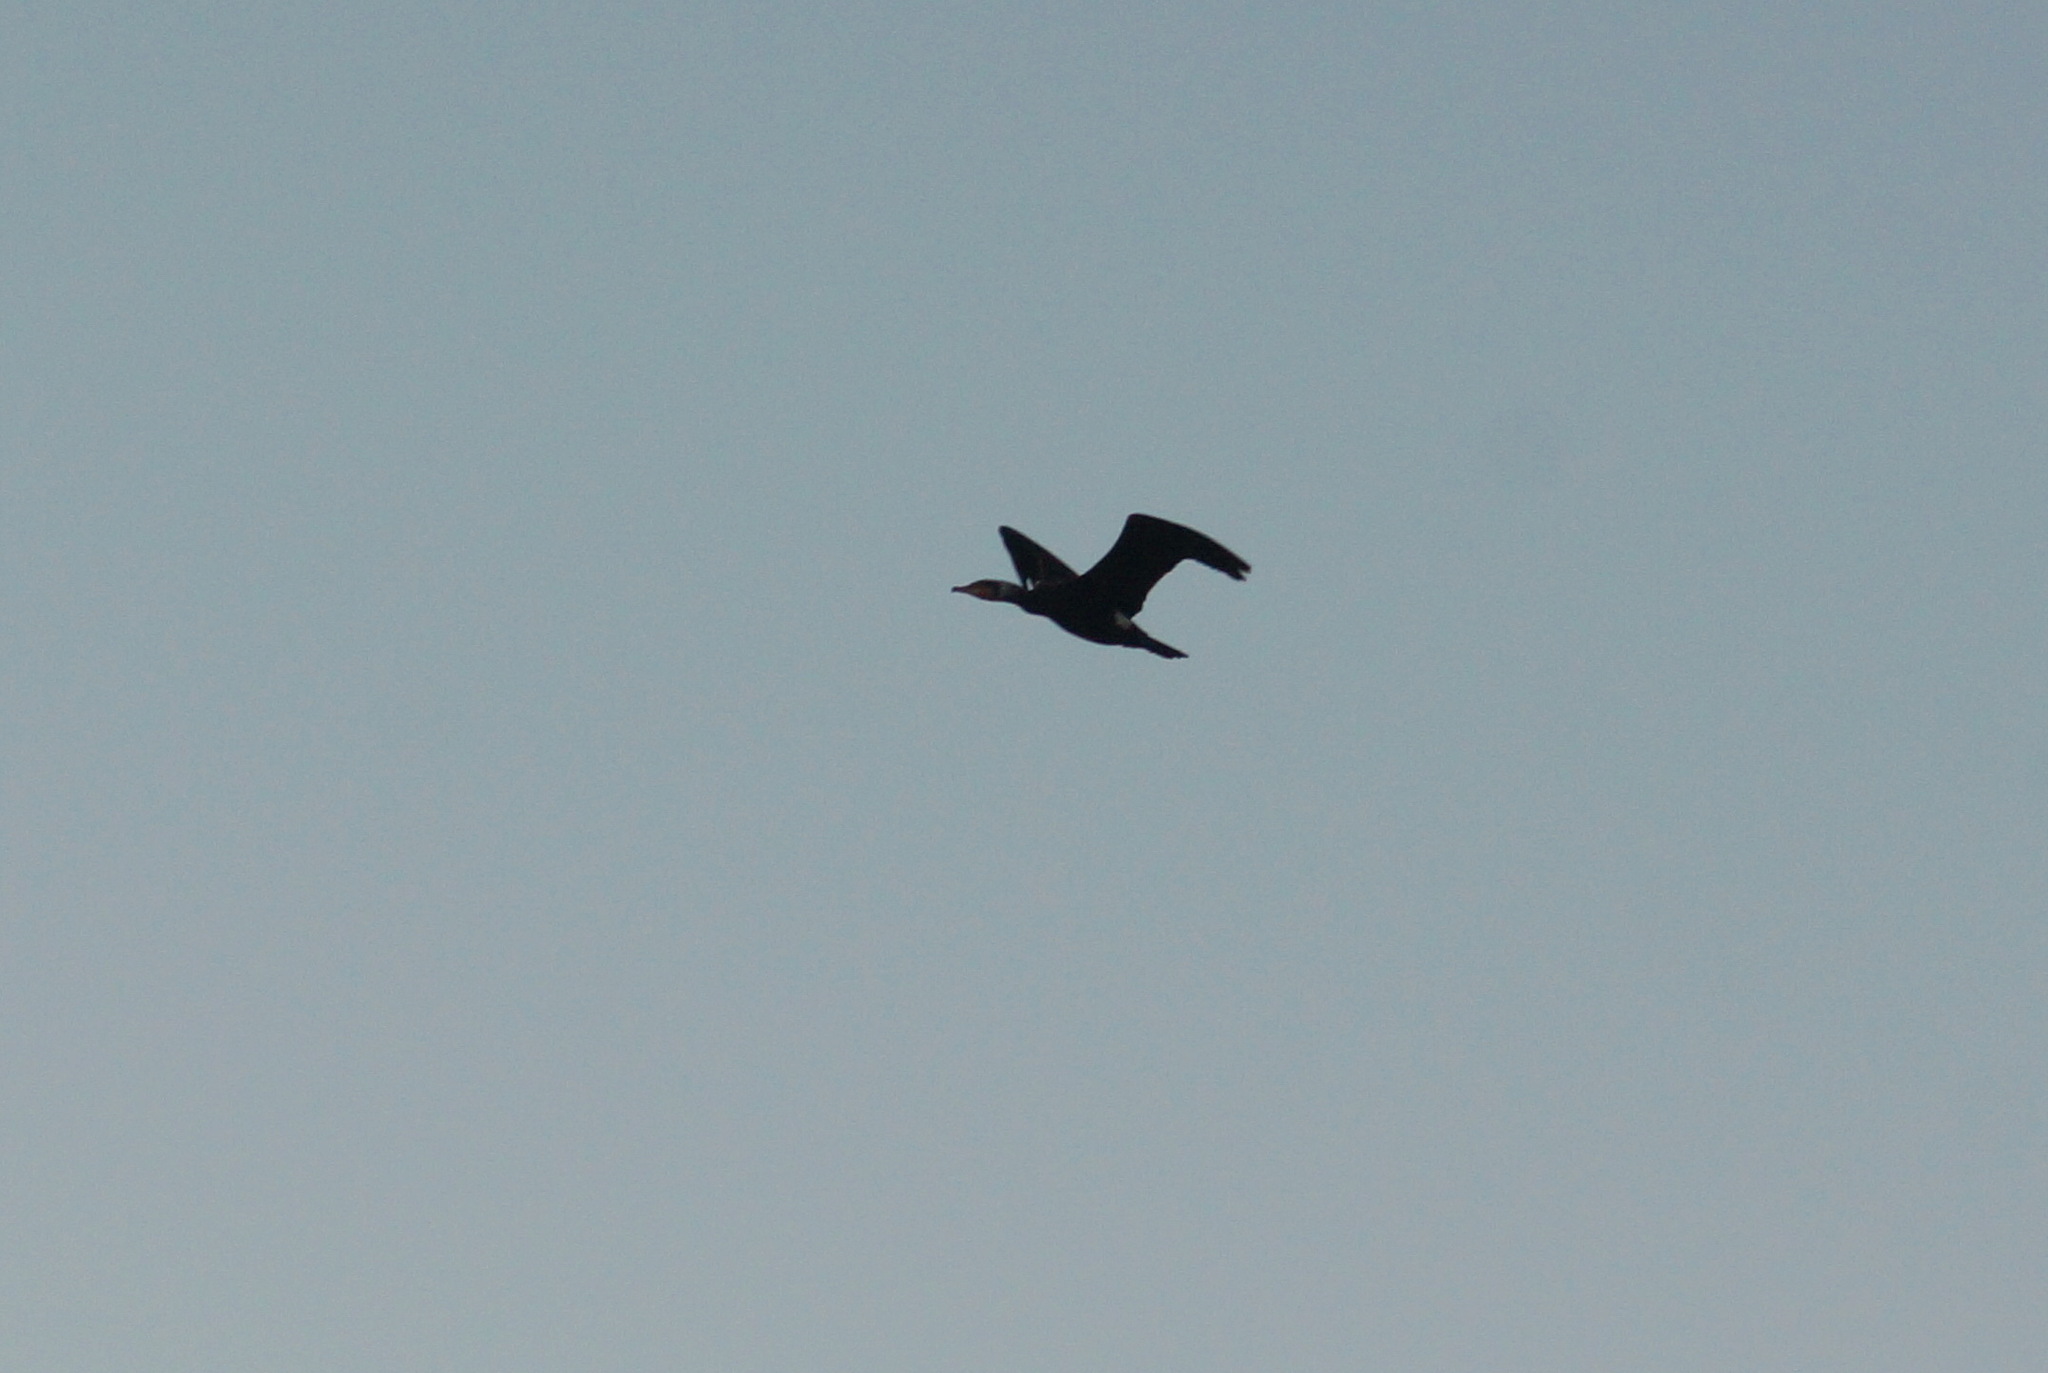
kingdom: Animalia
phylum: Chordata
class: Aves
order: Suliformes
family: Phalacrocoracidae
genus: Phalacrocorax
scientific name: Phalacrocorax carbo
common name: Great cormorant
